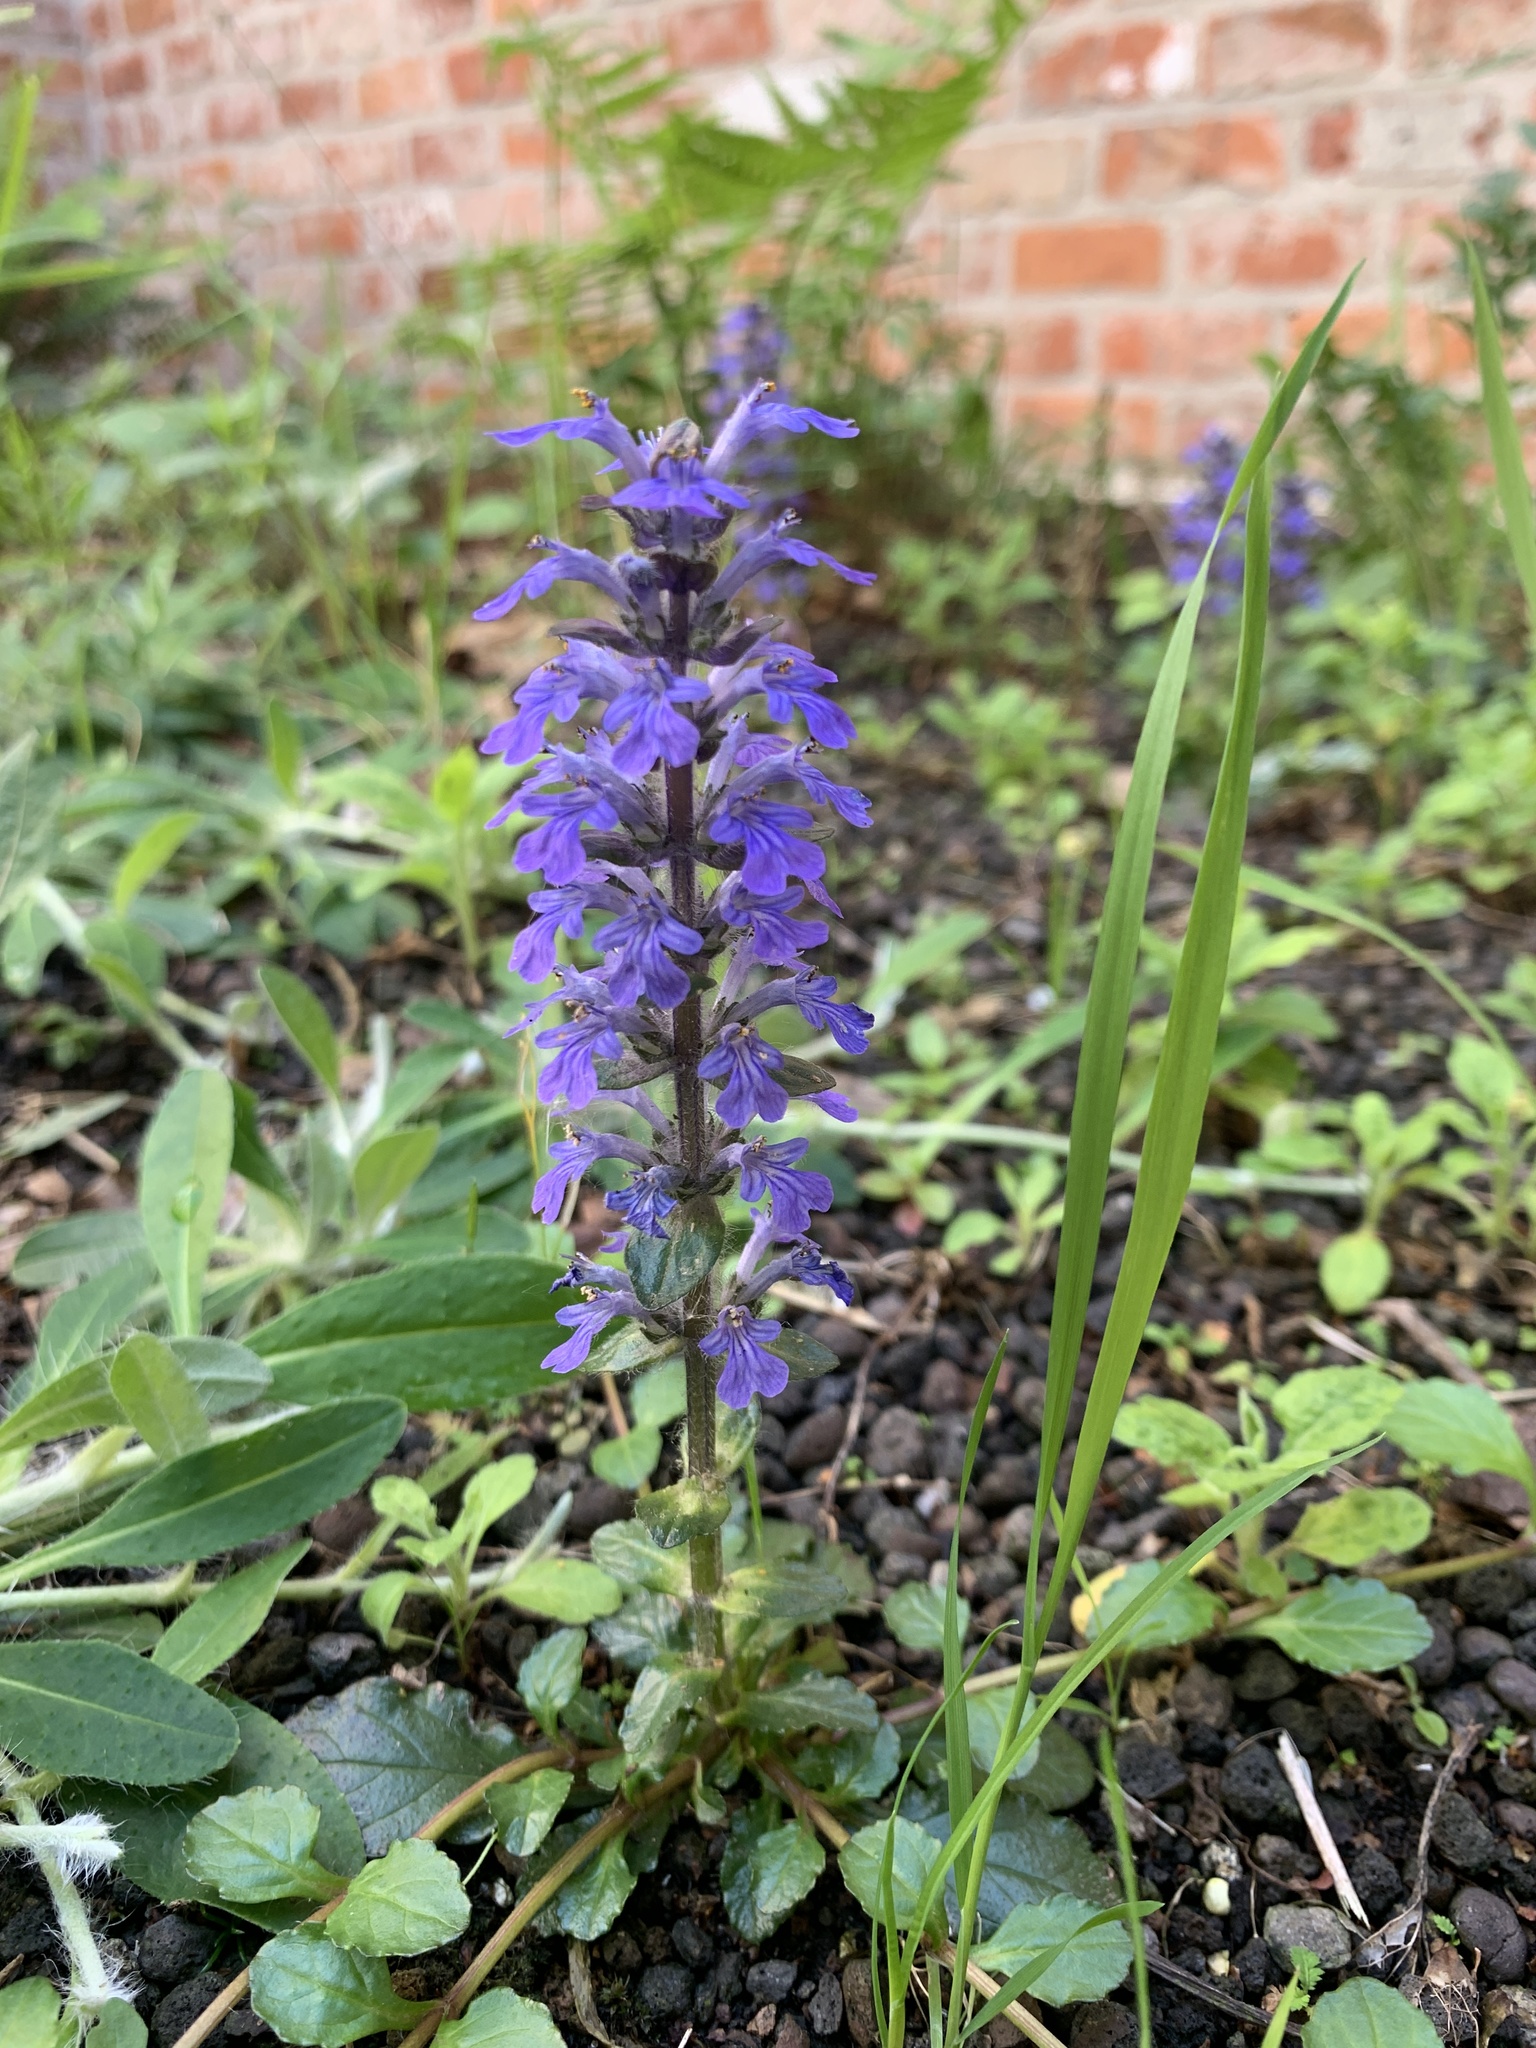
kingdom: Plantae
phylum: Tracheophyta
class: Magnoliopsida
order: Lamiales
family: Lamiaceae
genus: Ajuga
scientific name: Ajuga reptans
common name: Bugle
